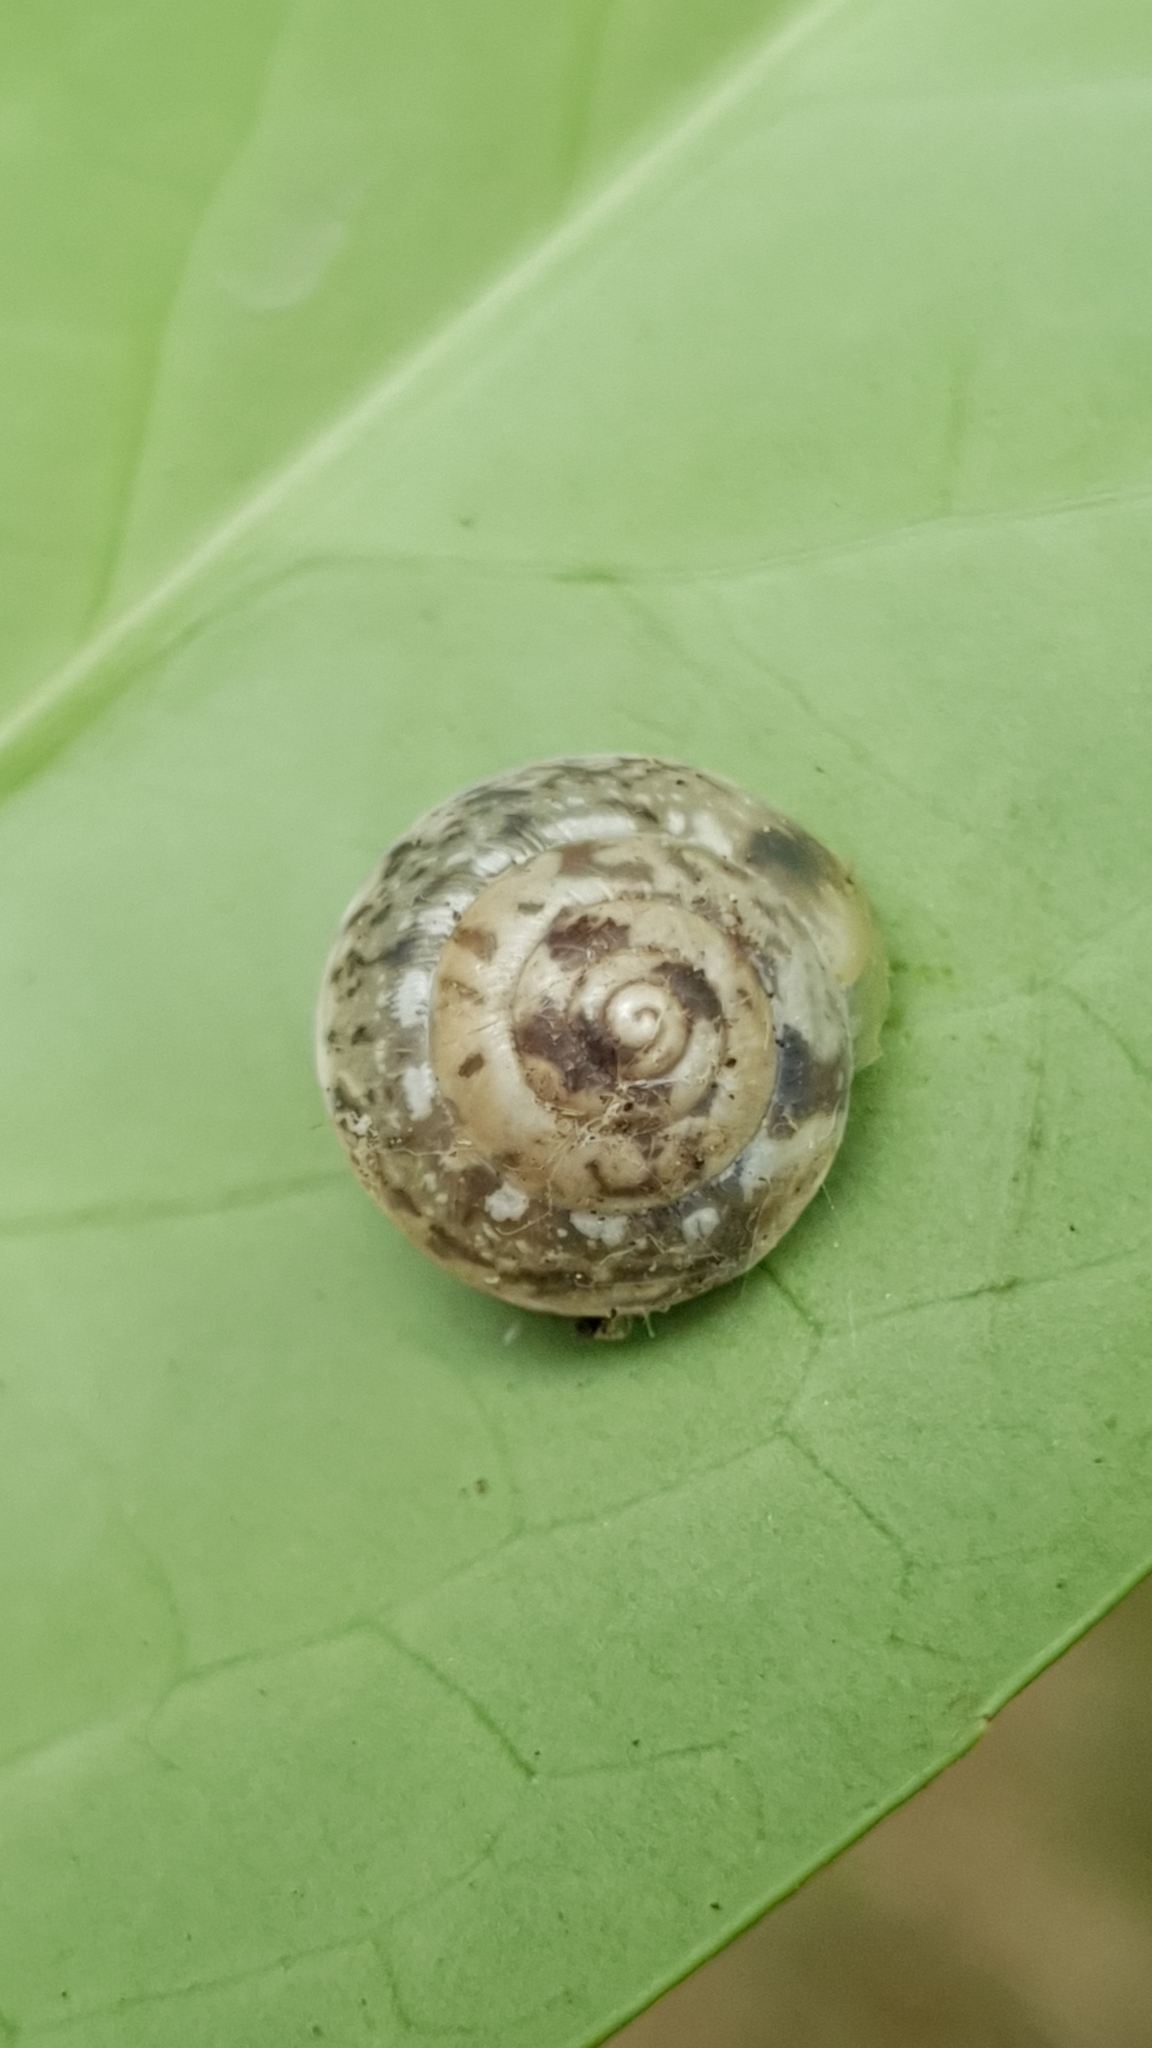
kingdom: Animalia
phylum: Mollusca
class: Gastropoda
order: Stylommatophora
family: Hygromiidae
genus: Hygromia
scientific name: Hygromia cinctella
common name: Girdled snail
